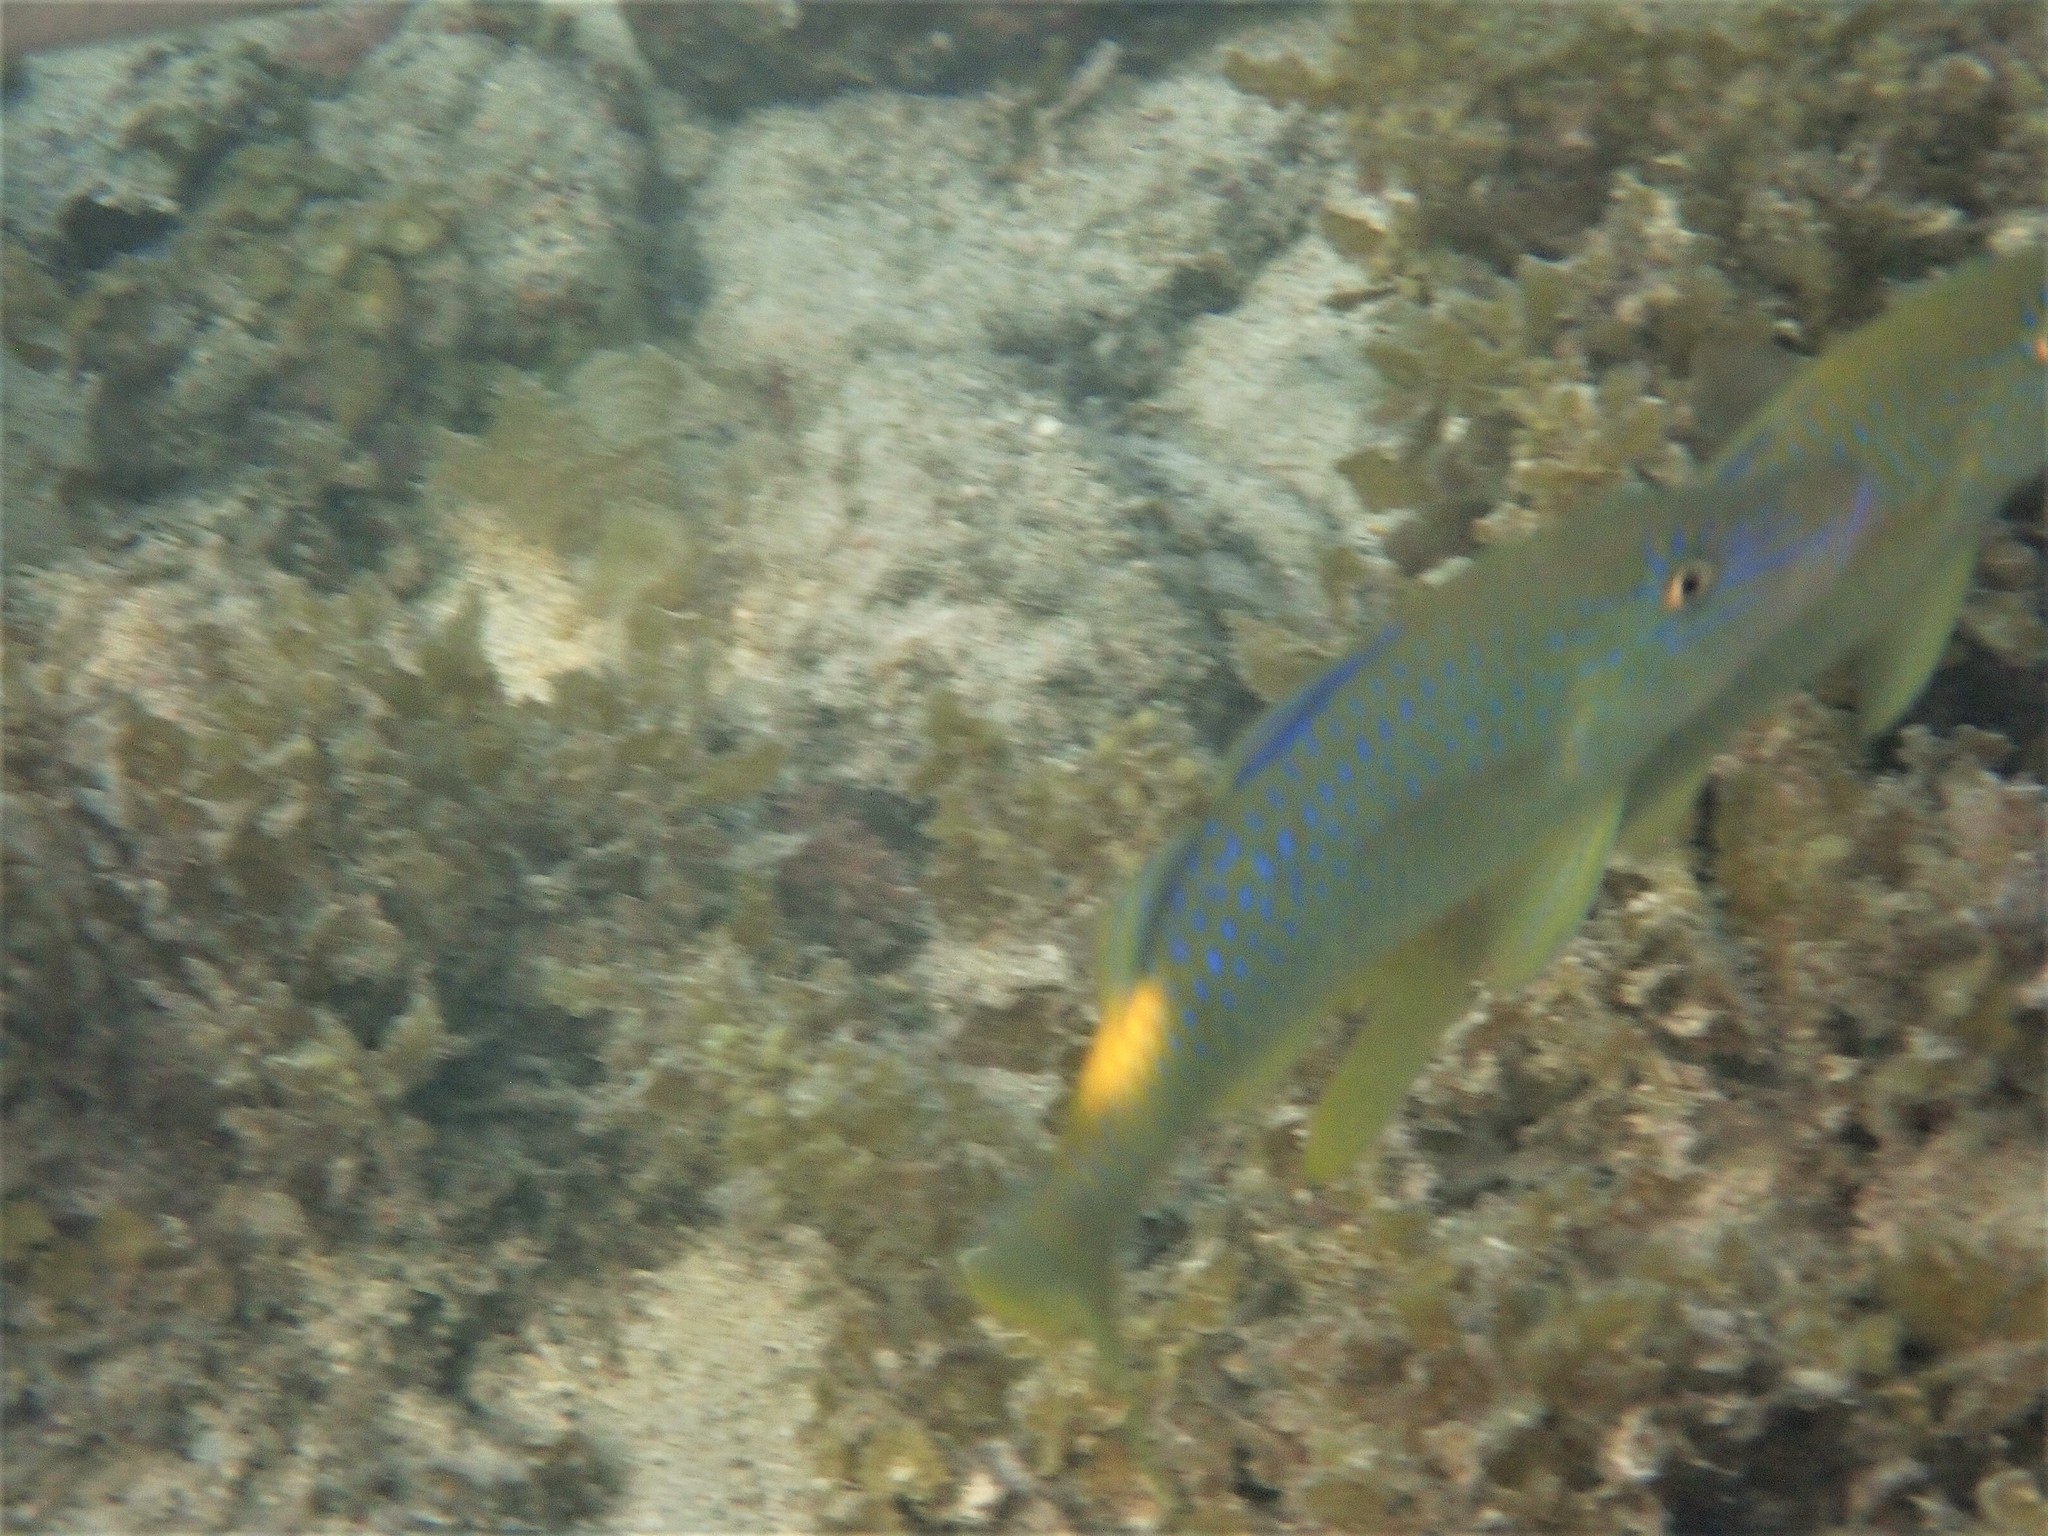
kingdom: Animalia
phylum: Chordata
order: Perciformes
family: Mullidae
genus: Parupeneus
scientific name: Parupeneus cyclostomus
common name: Goldsaddle goatfish
